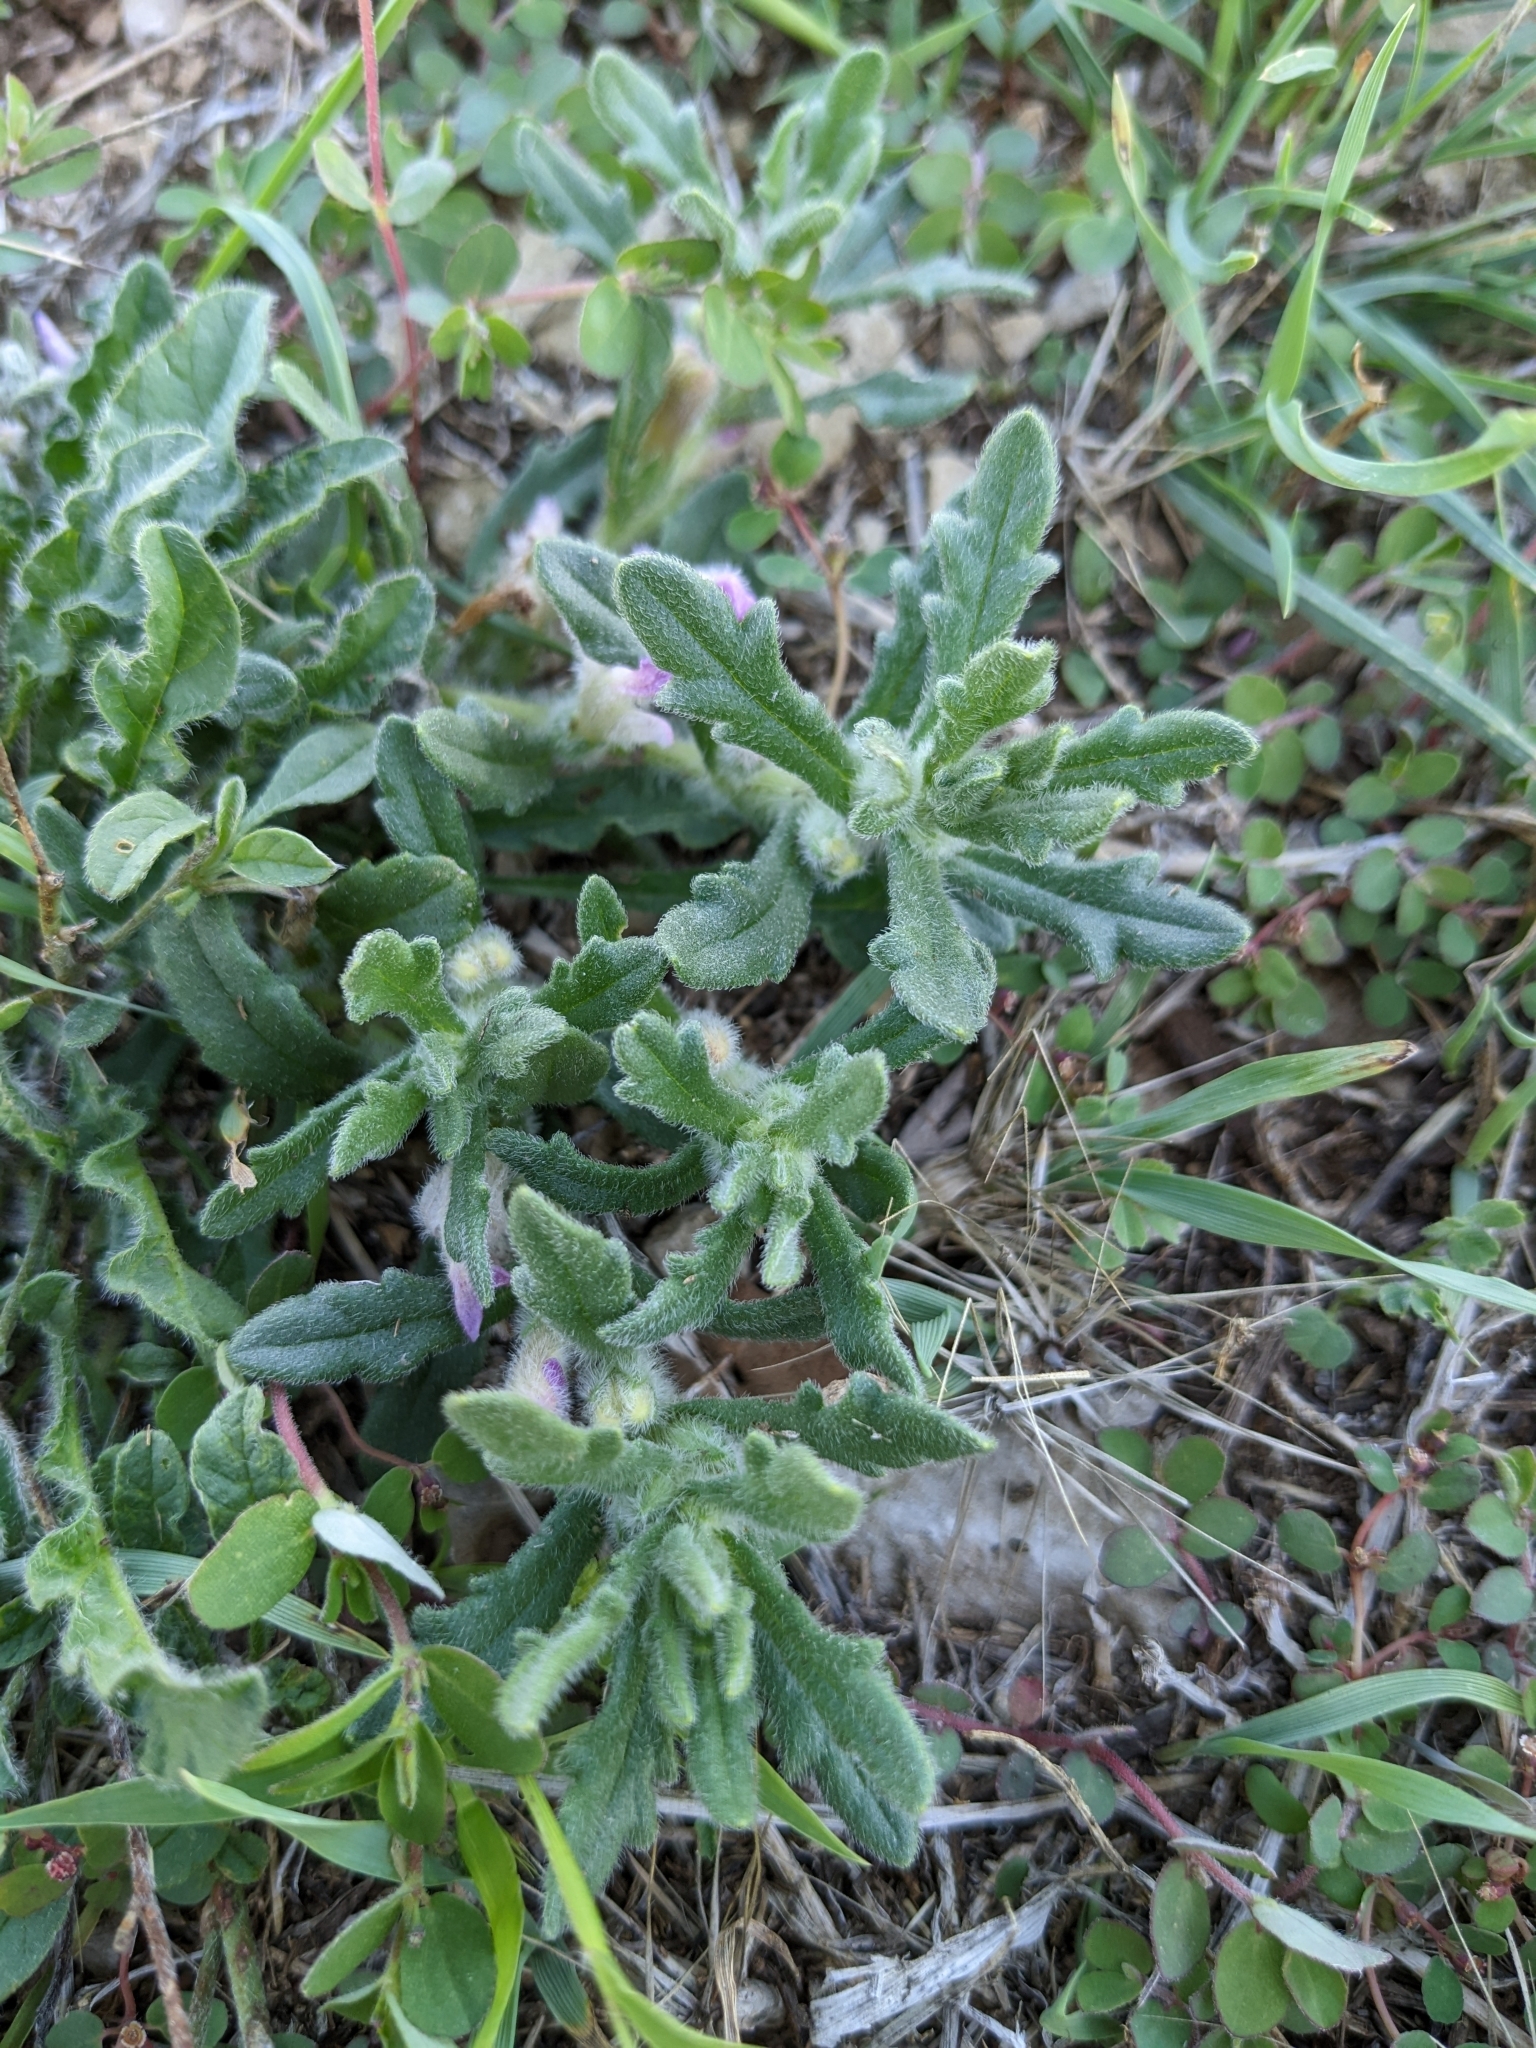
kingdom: Plantae
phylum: Tracheophyta
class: Magnoliopsida
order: Lamiales
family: Lamiaceae
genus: Ajuga
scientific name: Ajuga iva
